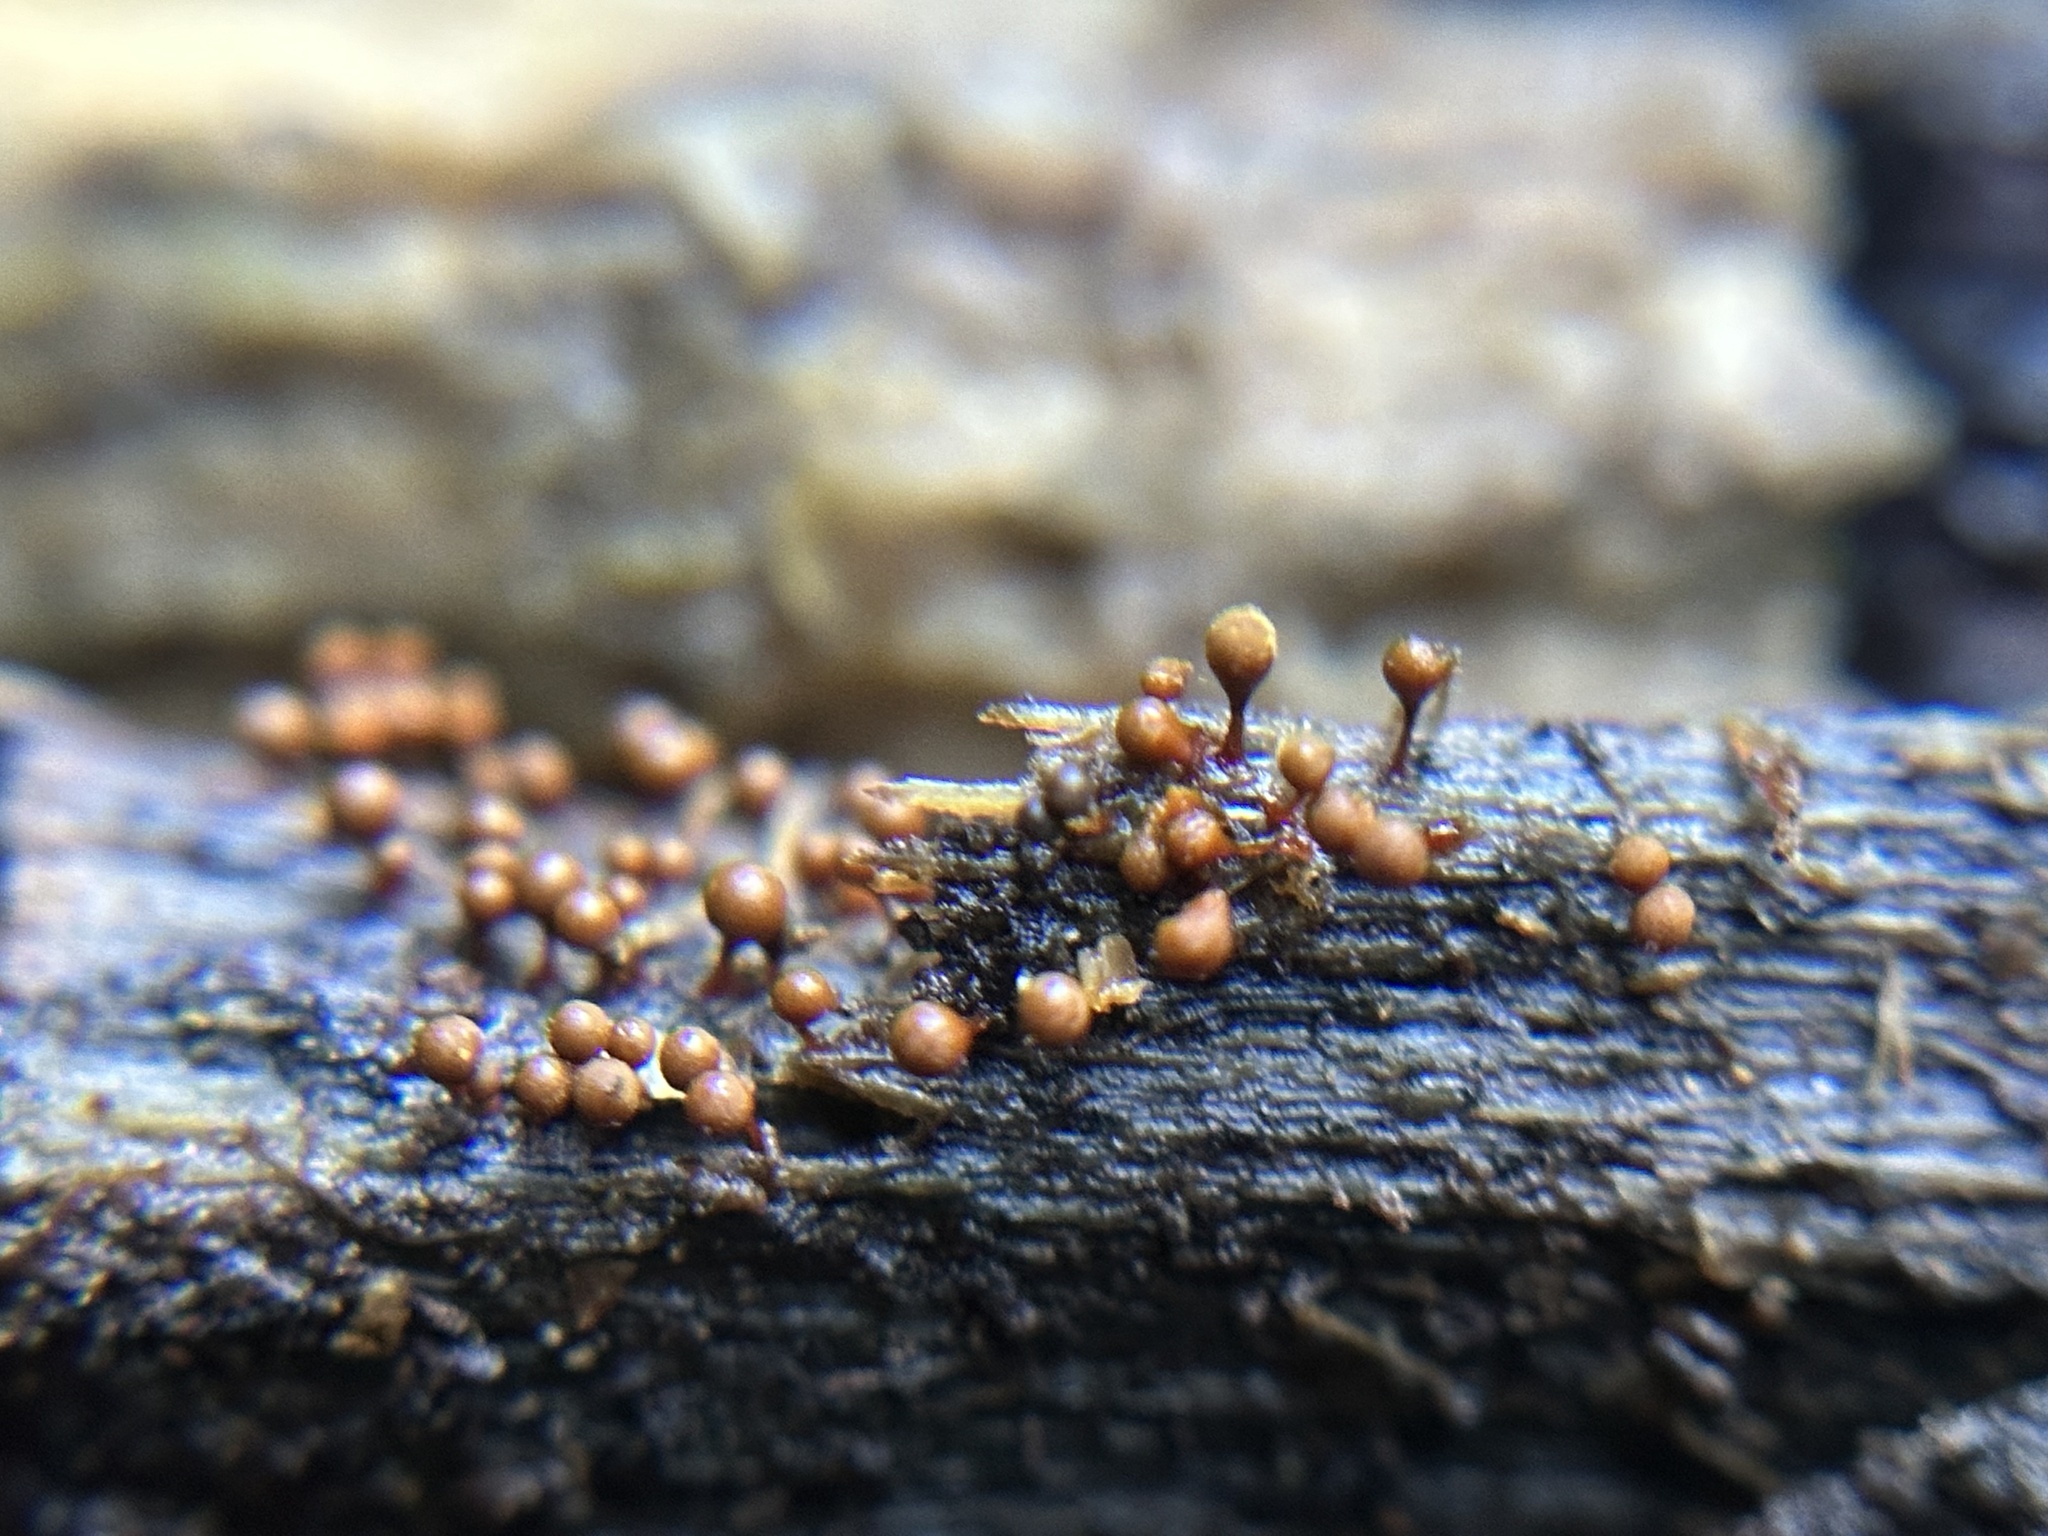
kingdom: Protozoa
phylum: Mycetozoa
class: Myxomycetes
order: Trichiales
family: Arcyriaceae
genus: Hemitrichia
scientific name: Hemitrichia calyculata
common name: Push pin slime mold
